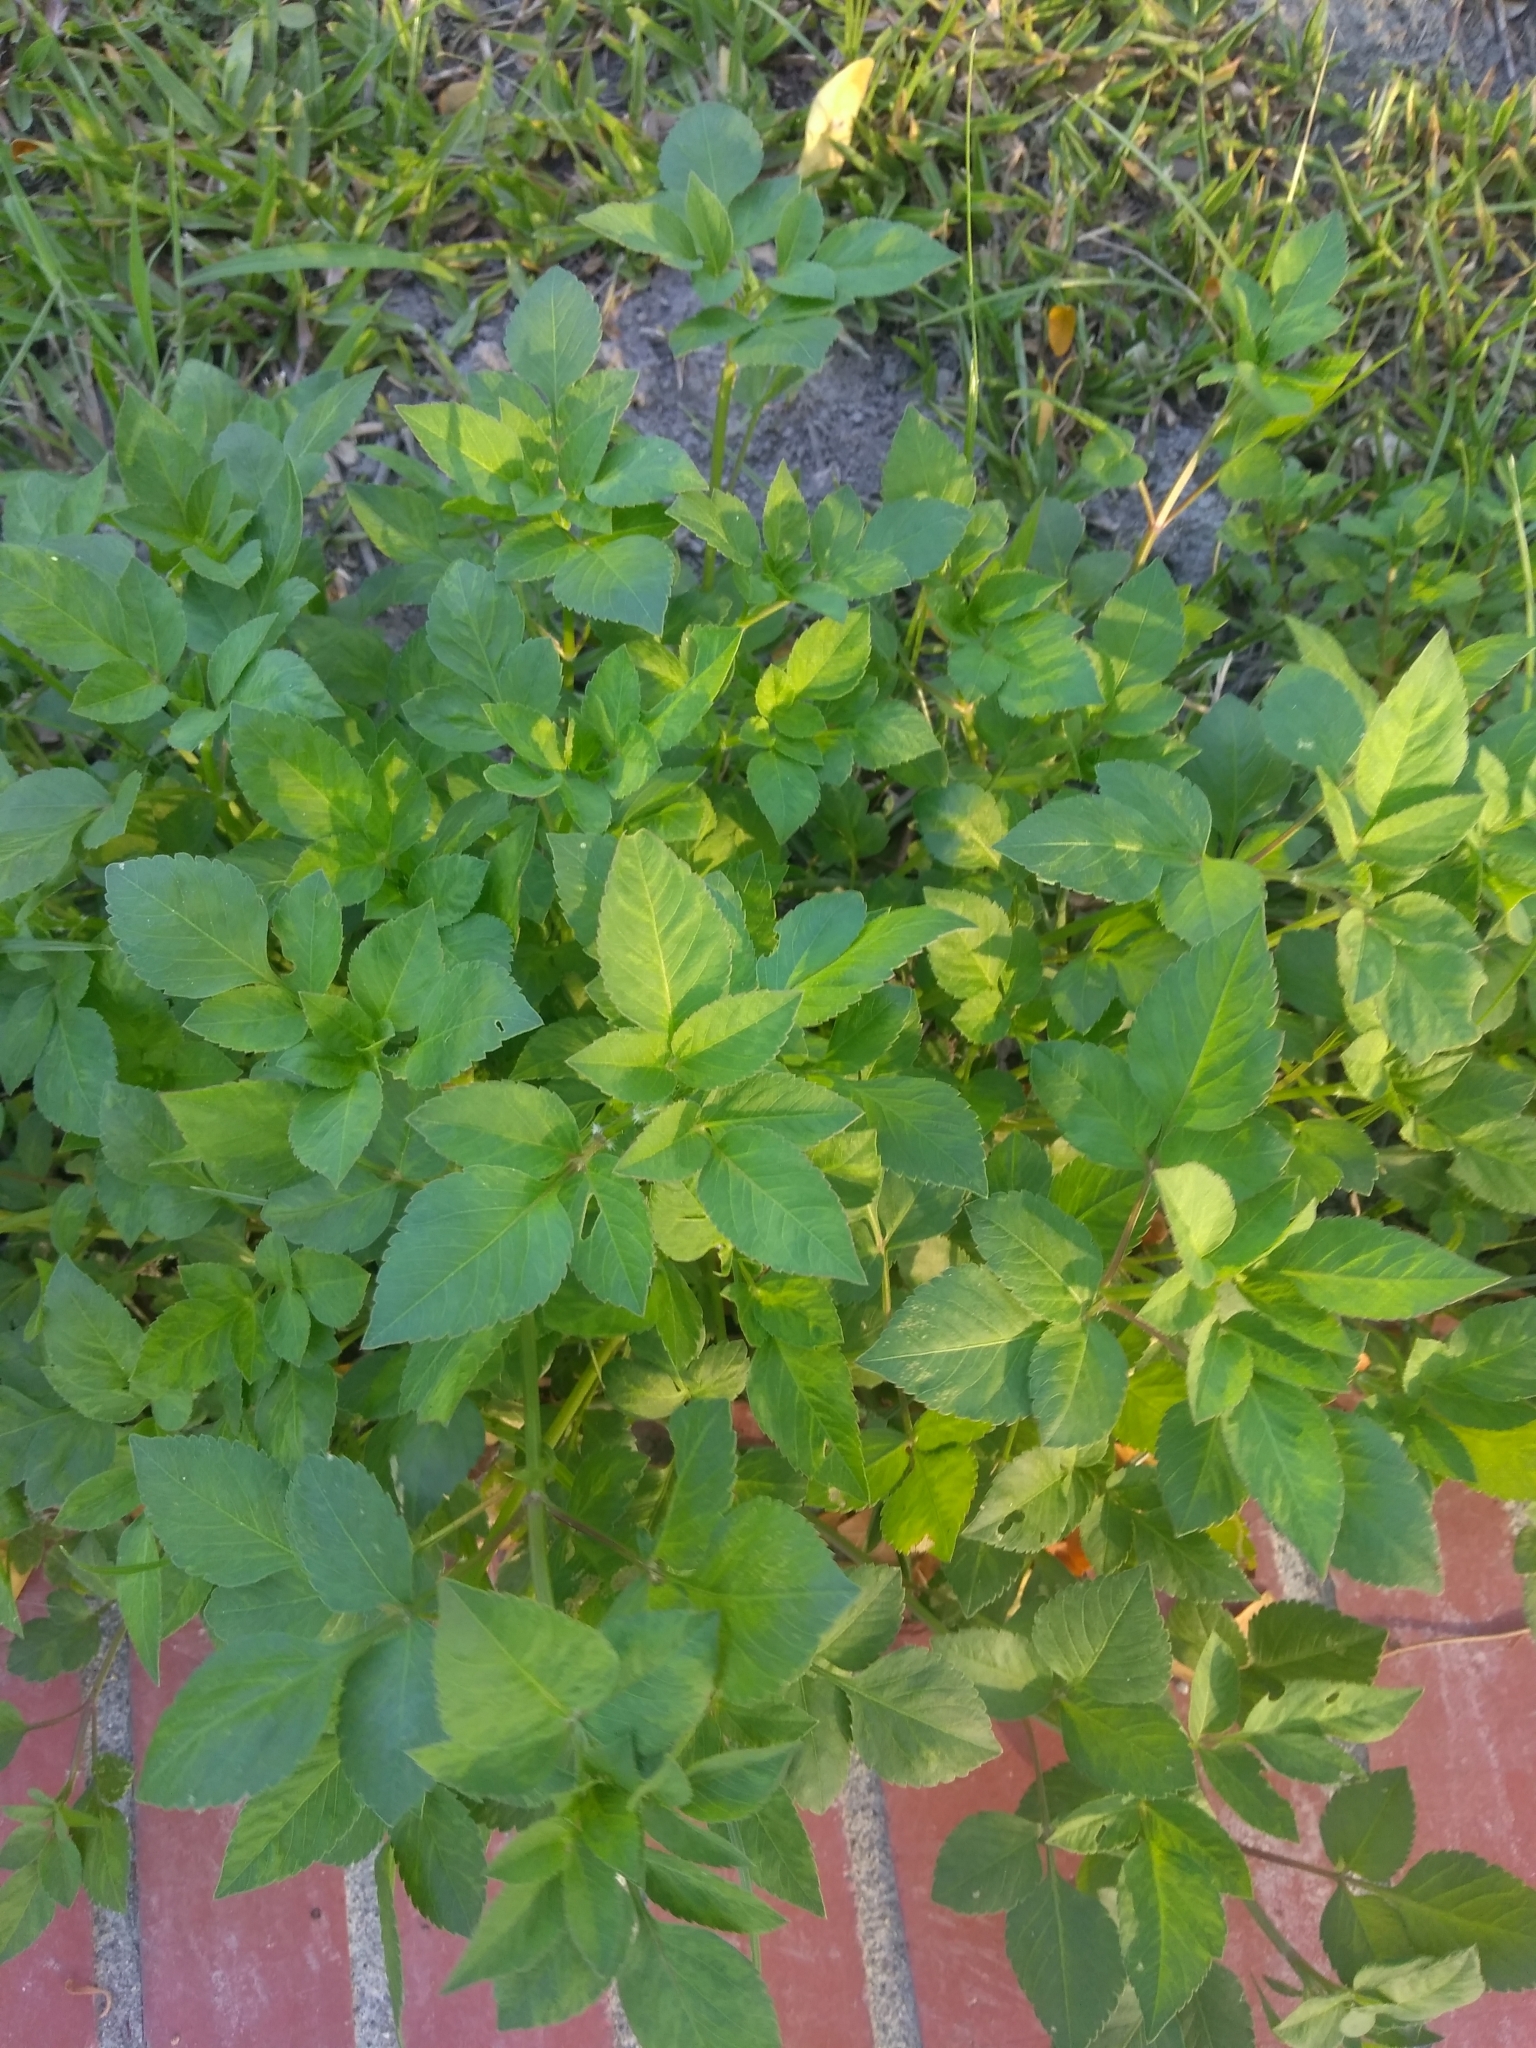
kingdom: Plantae
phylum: Tracheophyta
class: Magnoliopsida
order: Asterales
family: Asteraceae
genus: Bidens
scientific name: Bidens alba
